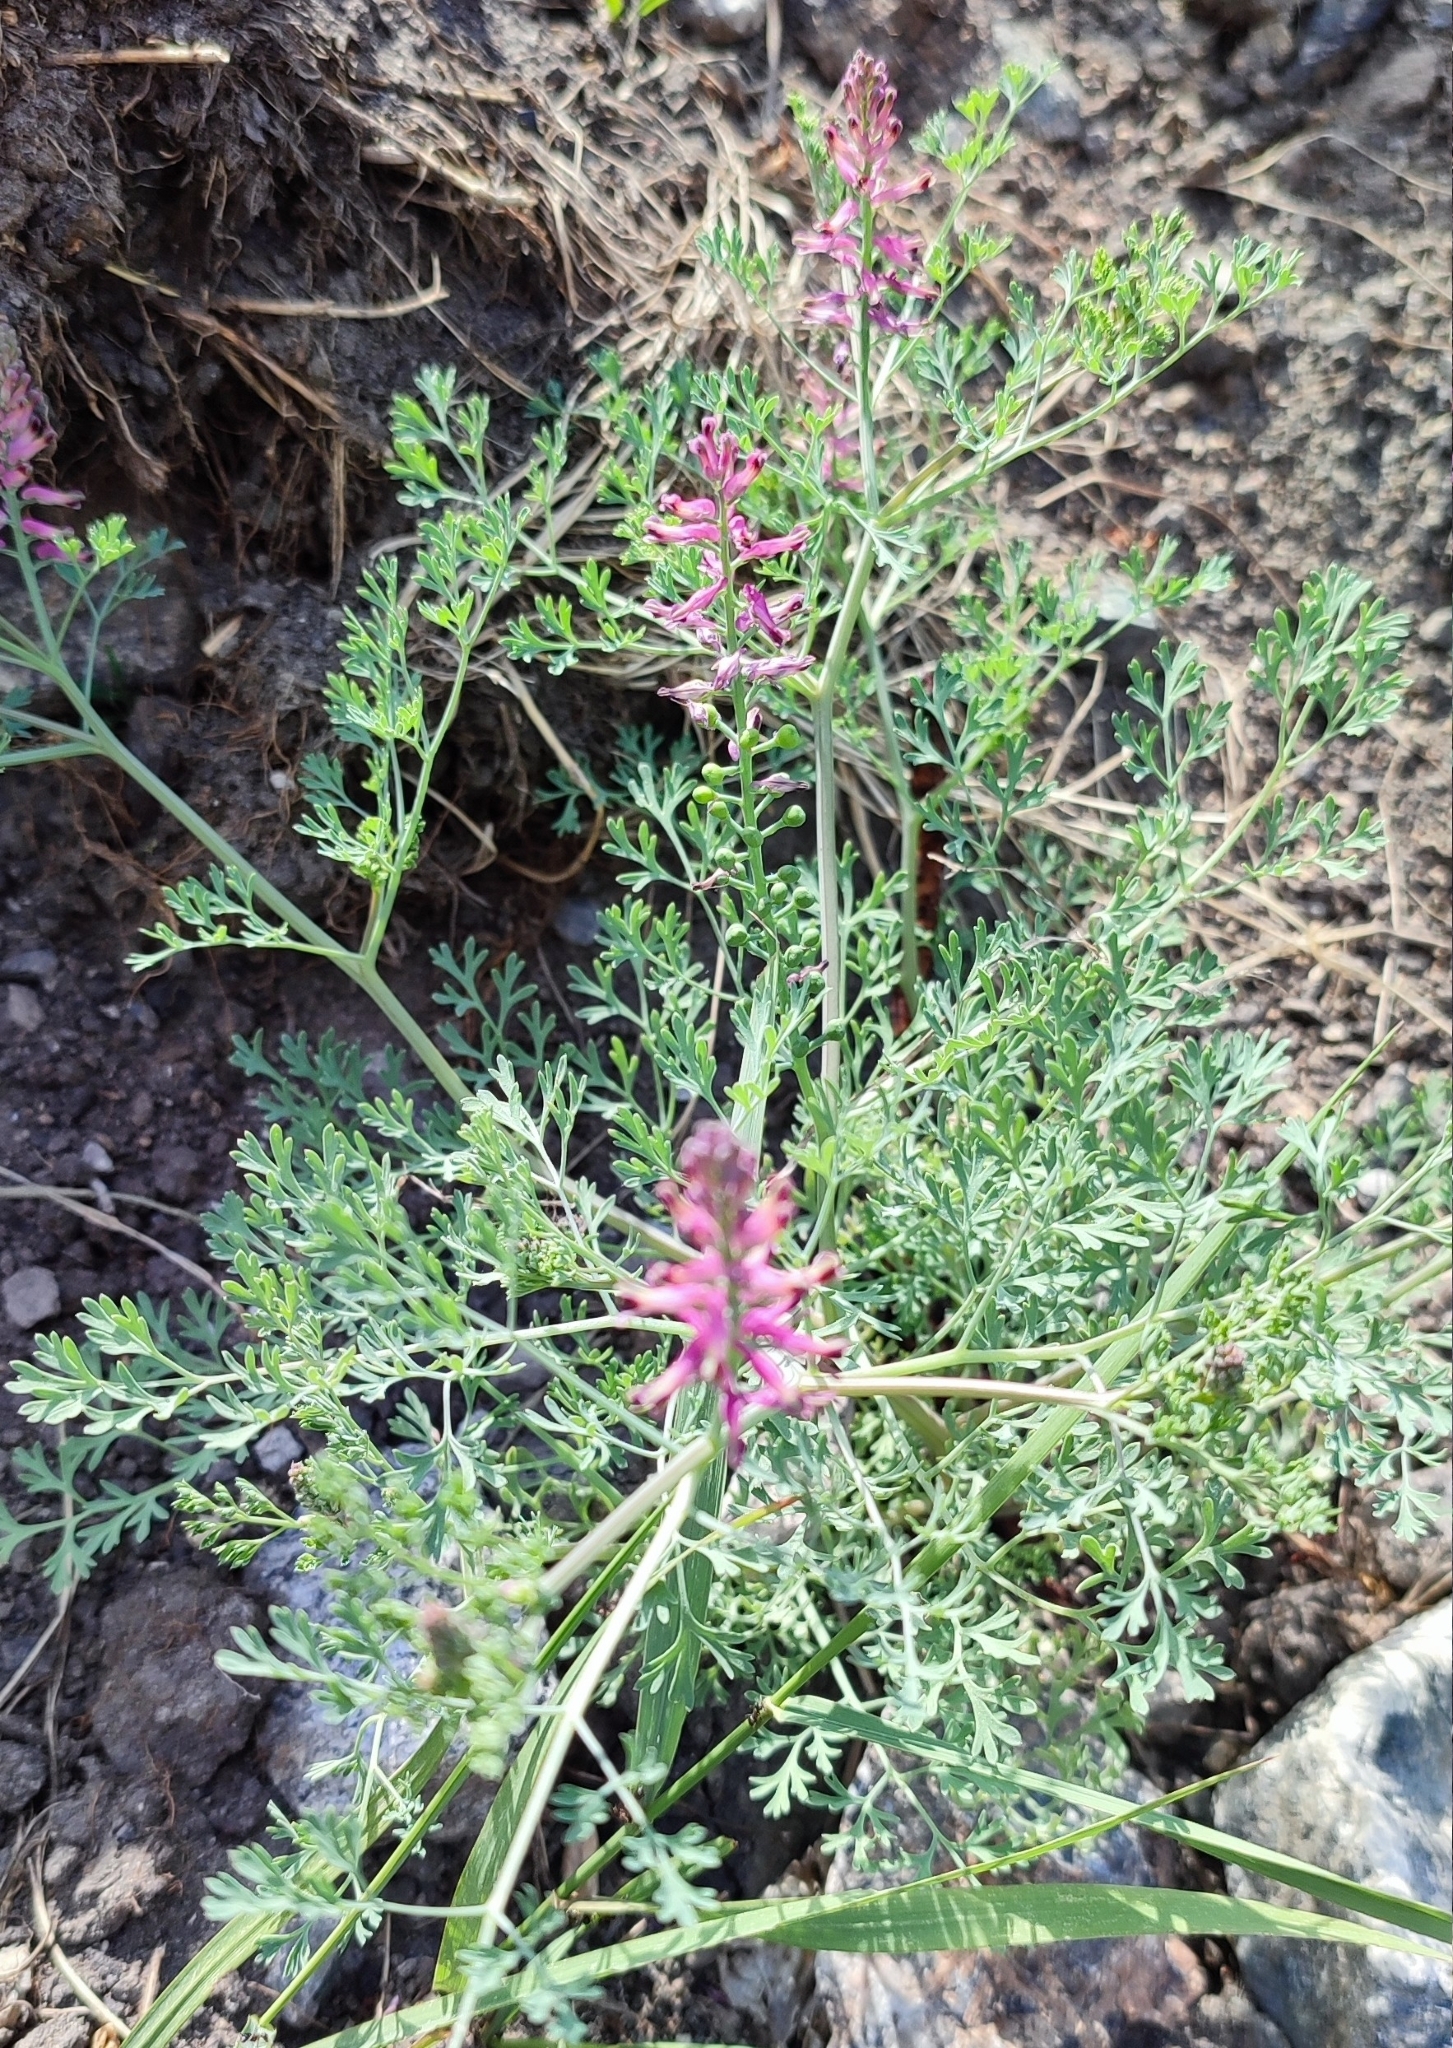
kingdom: Plantae
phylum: Tracheophyta
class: Magnoliopsida
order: Ranunculales
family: Papaveraceae
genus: Fumaria
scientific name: Fumaria officinalis
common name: Common fumitory
